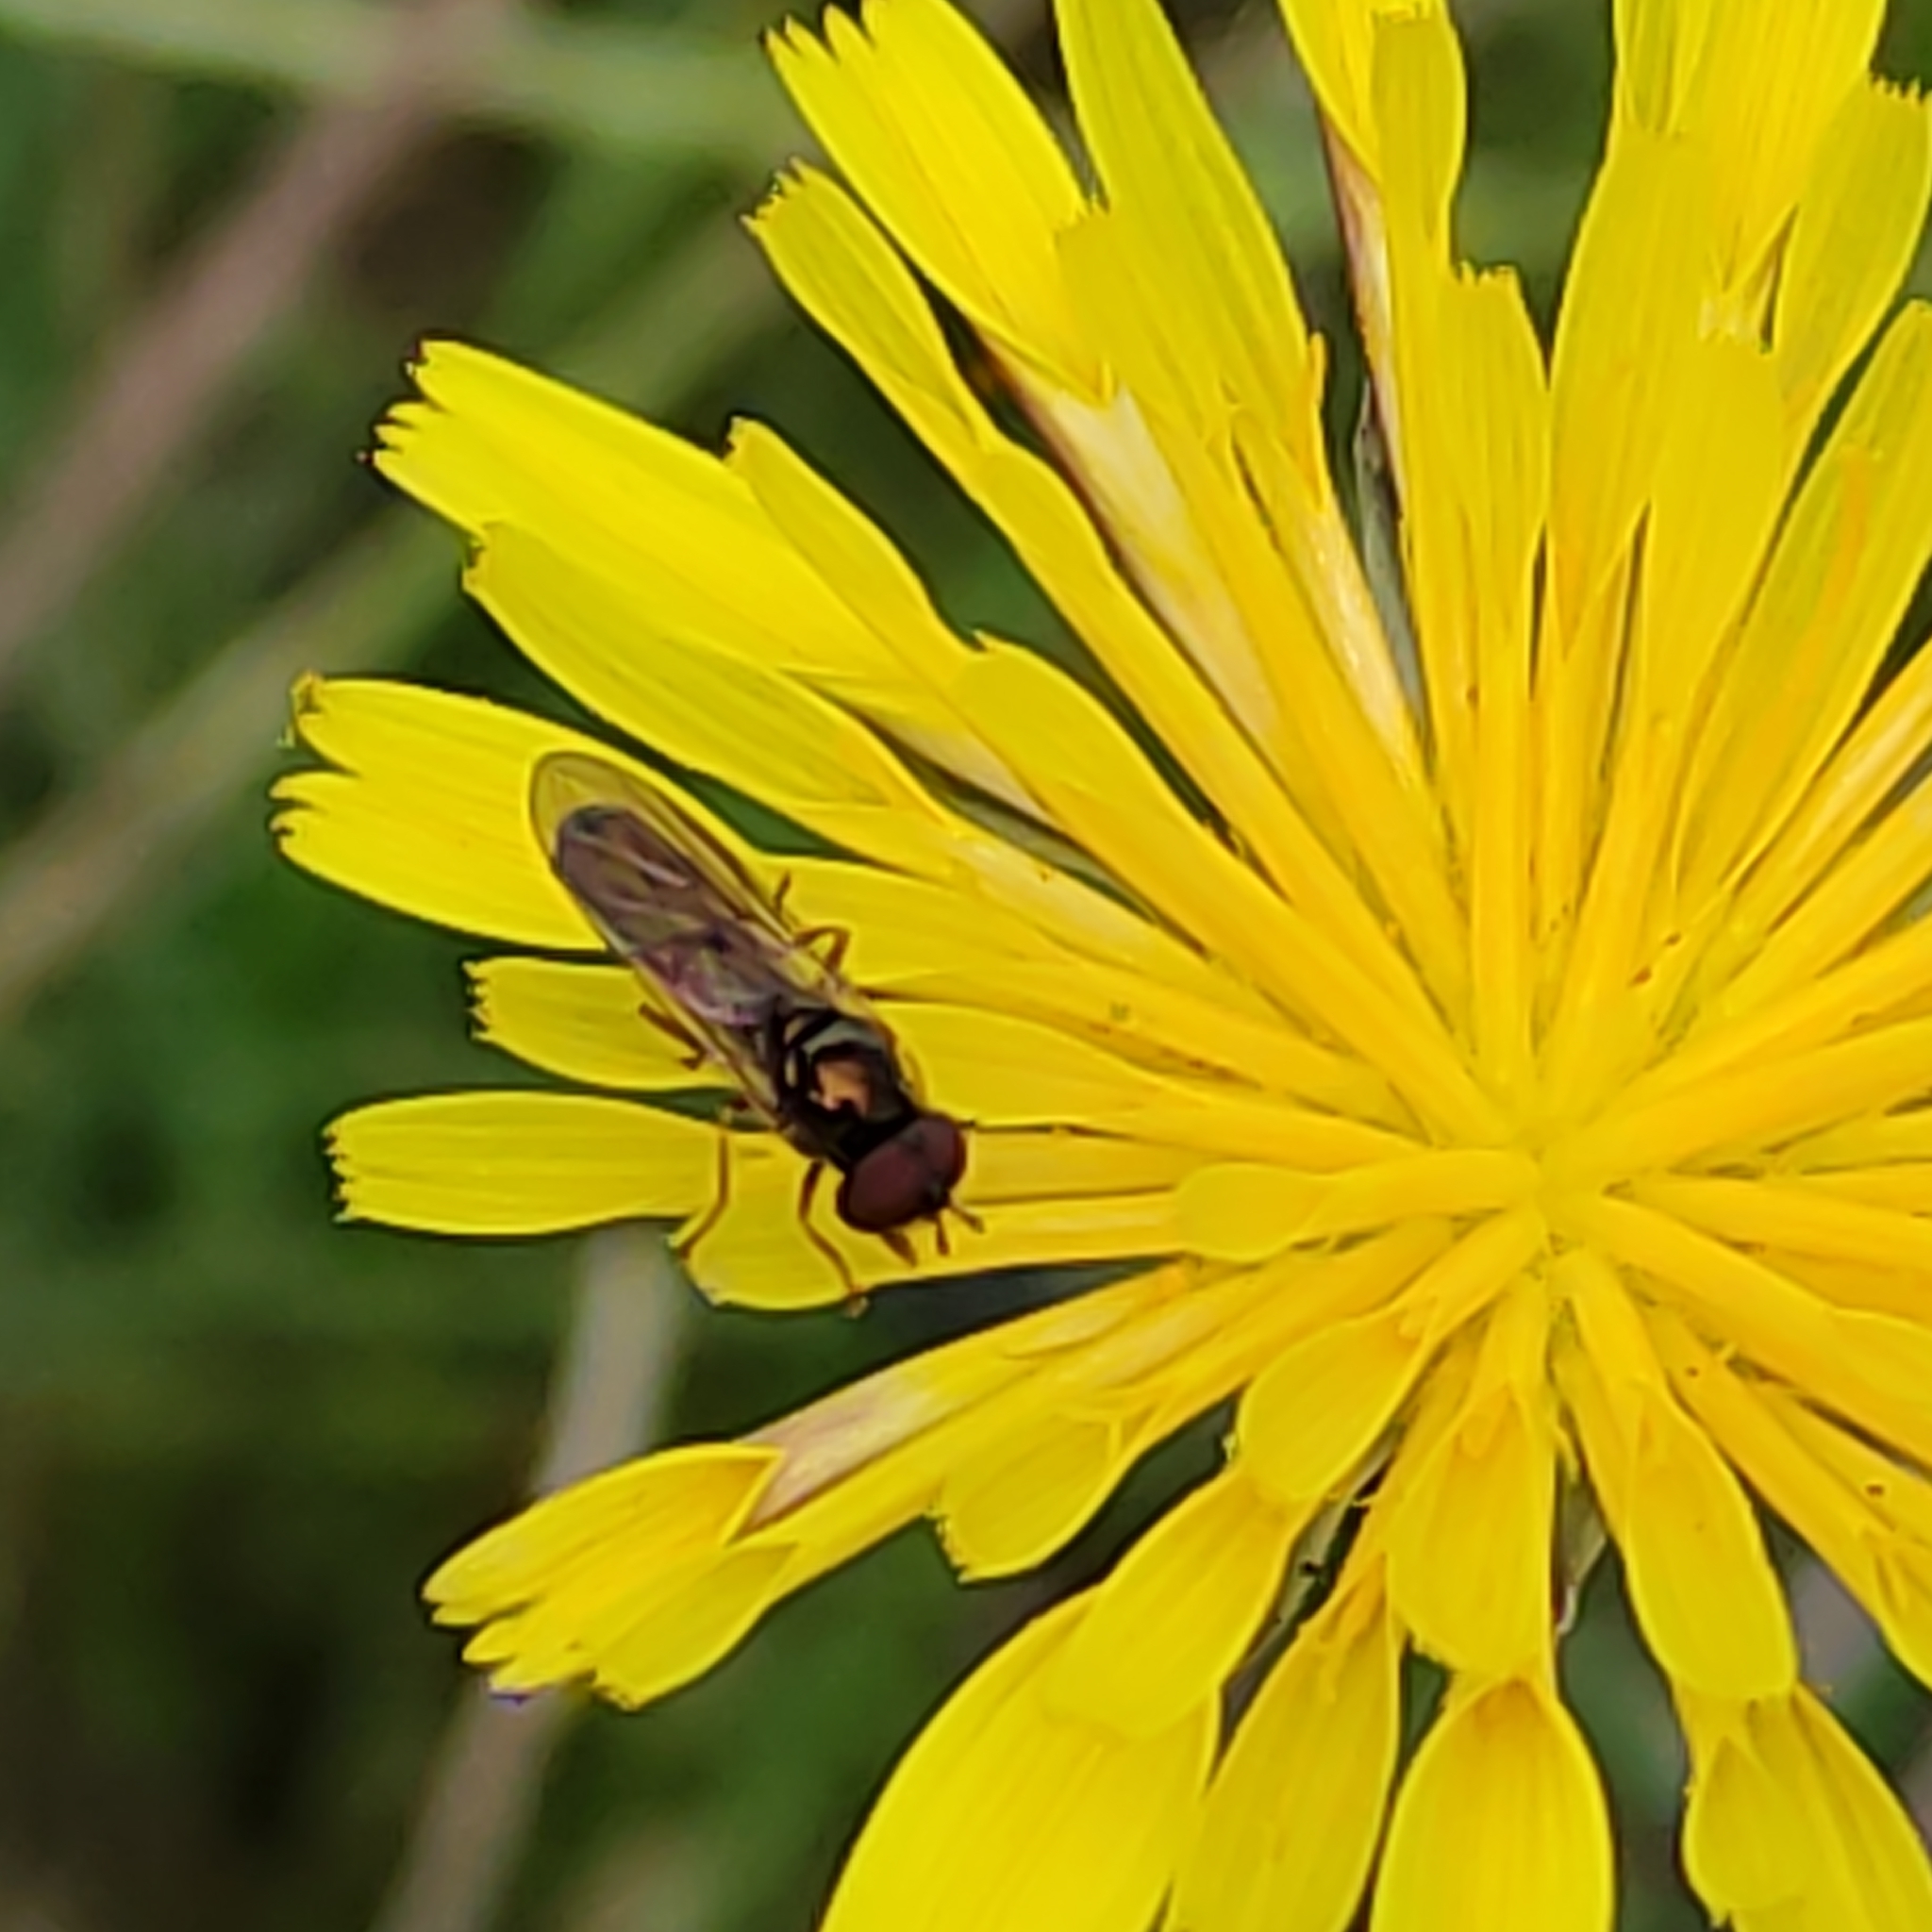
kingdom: Animalia
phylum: Arthropoda
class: Insecta
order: Diptera
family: Syrphidae
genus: Melanostoma
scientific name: Melanostoma fasciatum
